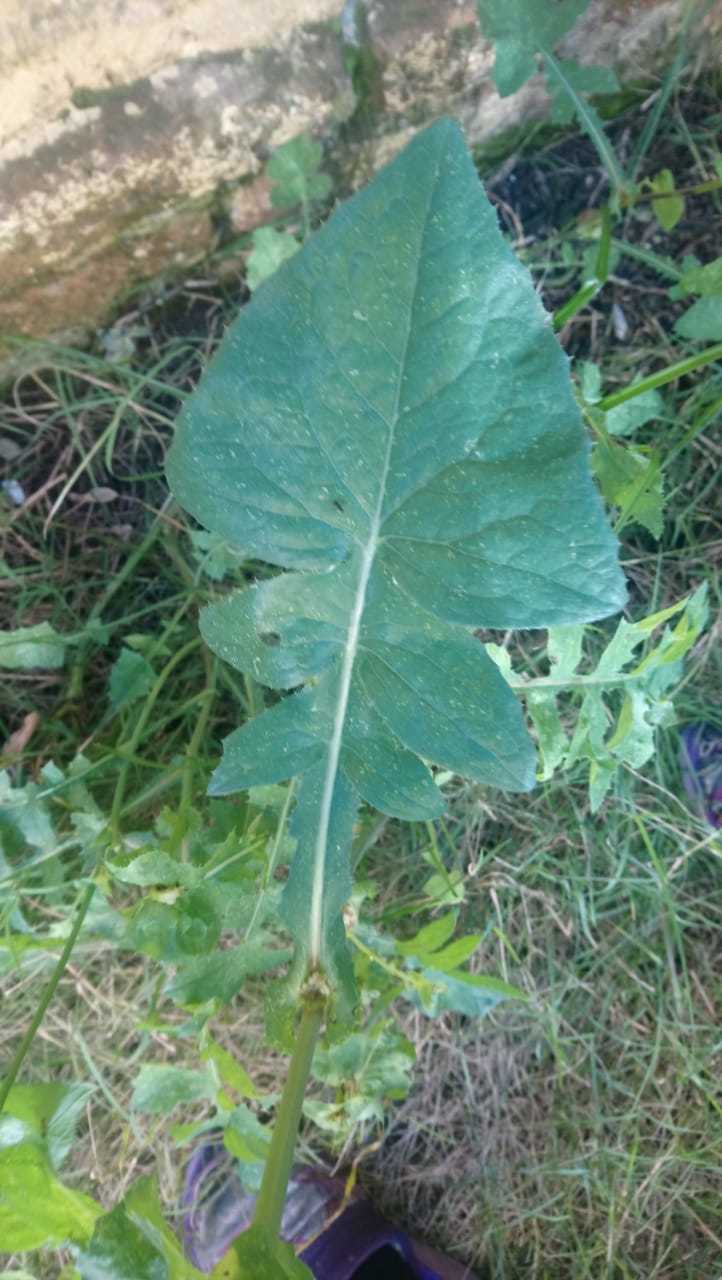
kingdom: Plantae
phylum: Tracheophyta
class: Magnoliopsida
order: Asterales
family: Asteraceae
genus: Sonchus
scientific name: Sonchus oleraceus
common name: Common sowthistle
